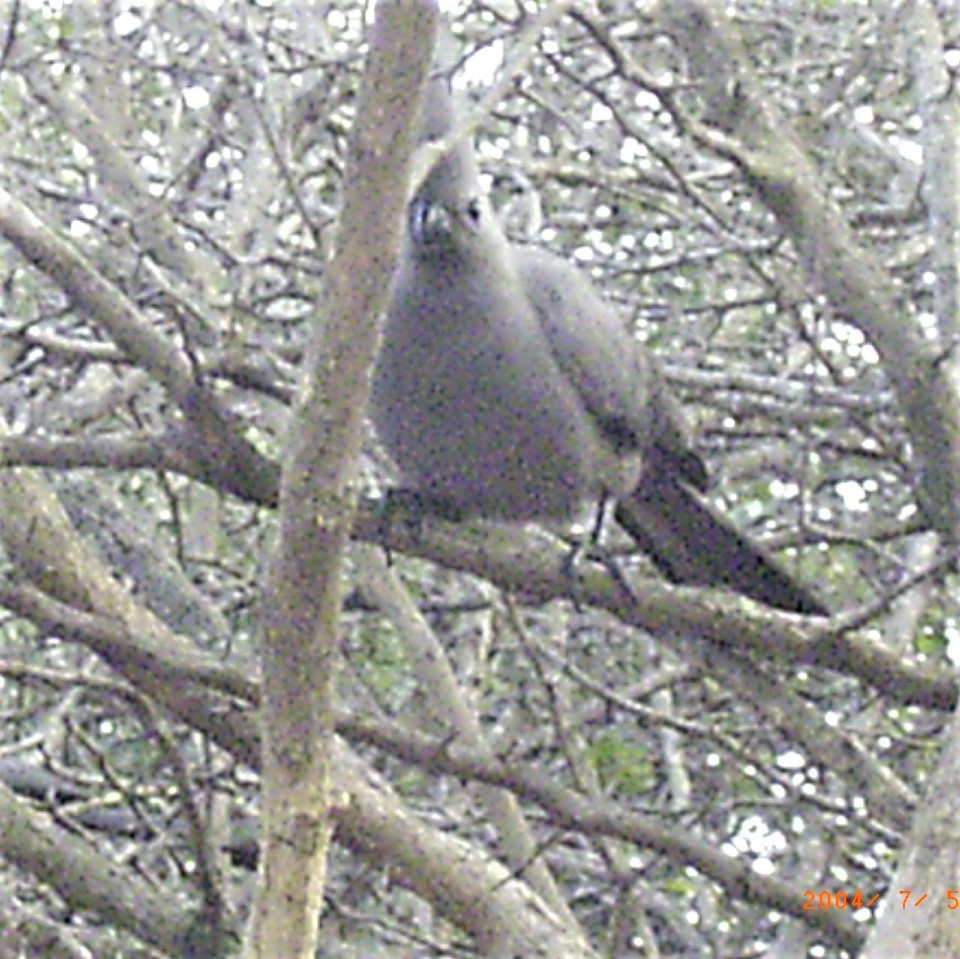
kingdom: Animalia
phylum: Chordata
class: Aves
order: Musophagiformes
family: Musophagidae
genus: Corythaixoides
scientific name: Corythaixoides concolor
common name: Grey go-away-bird
